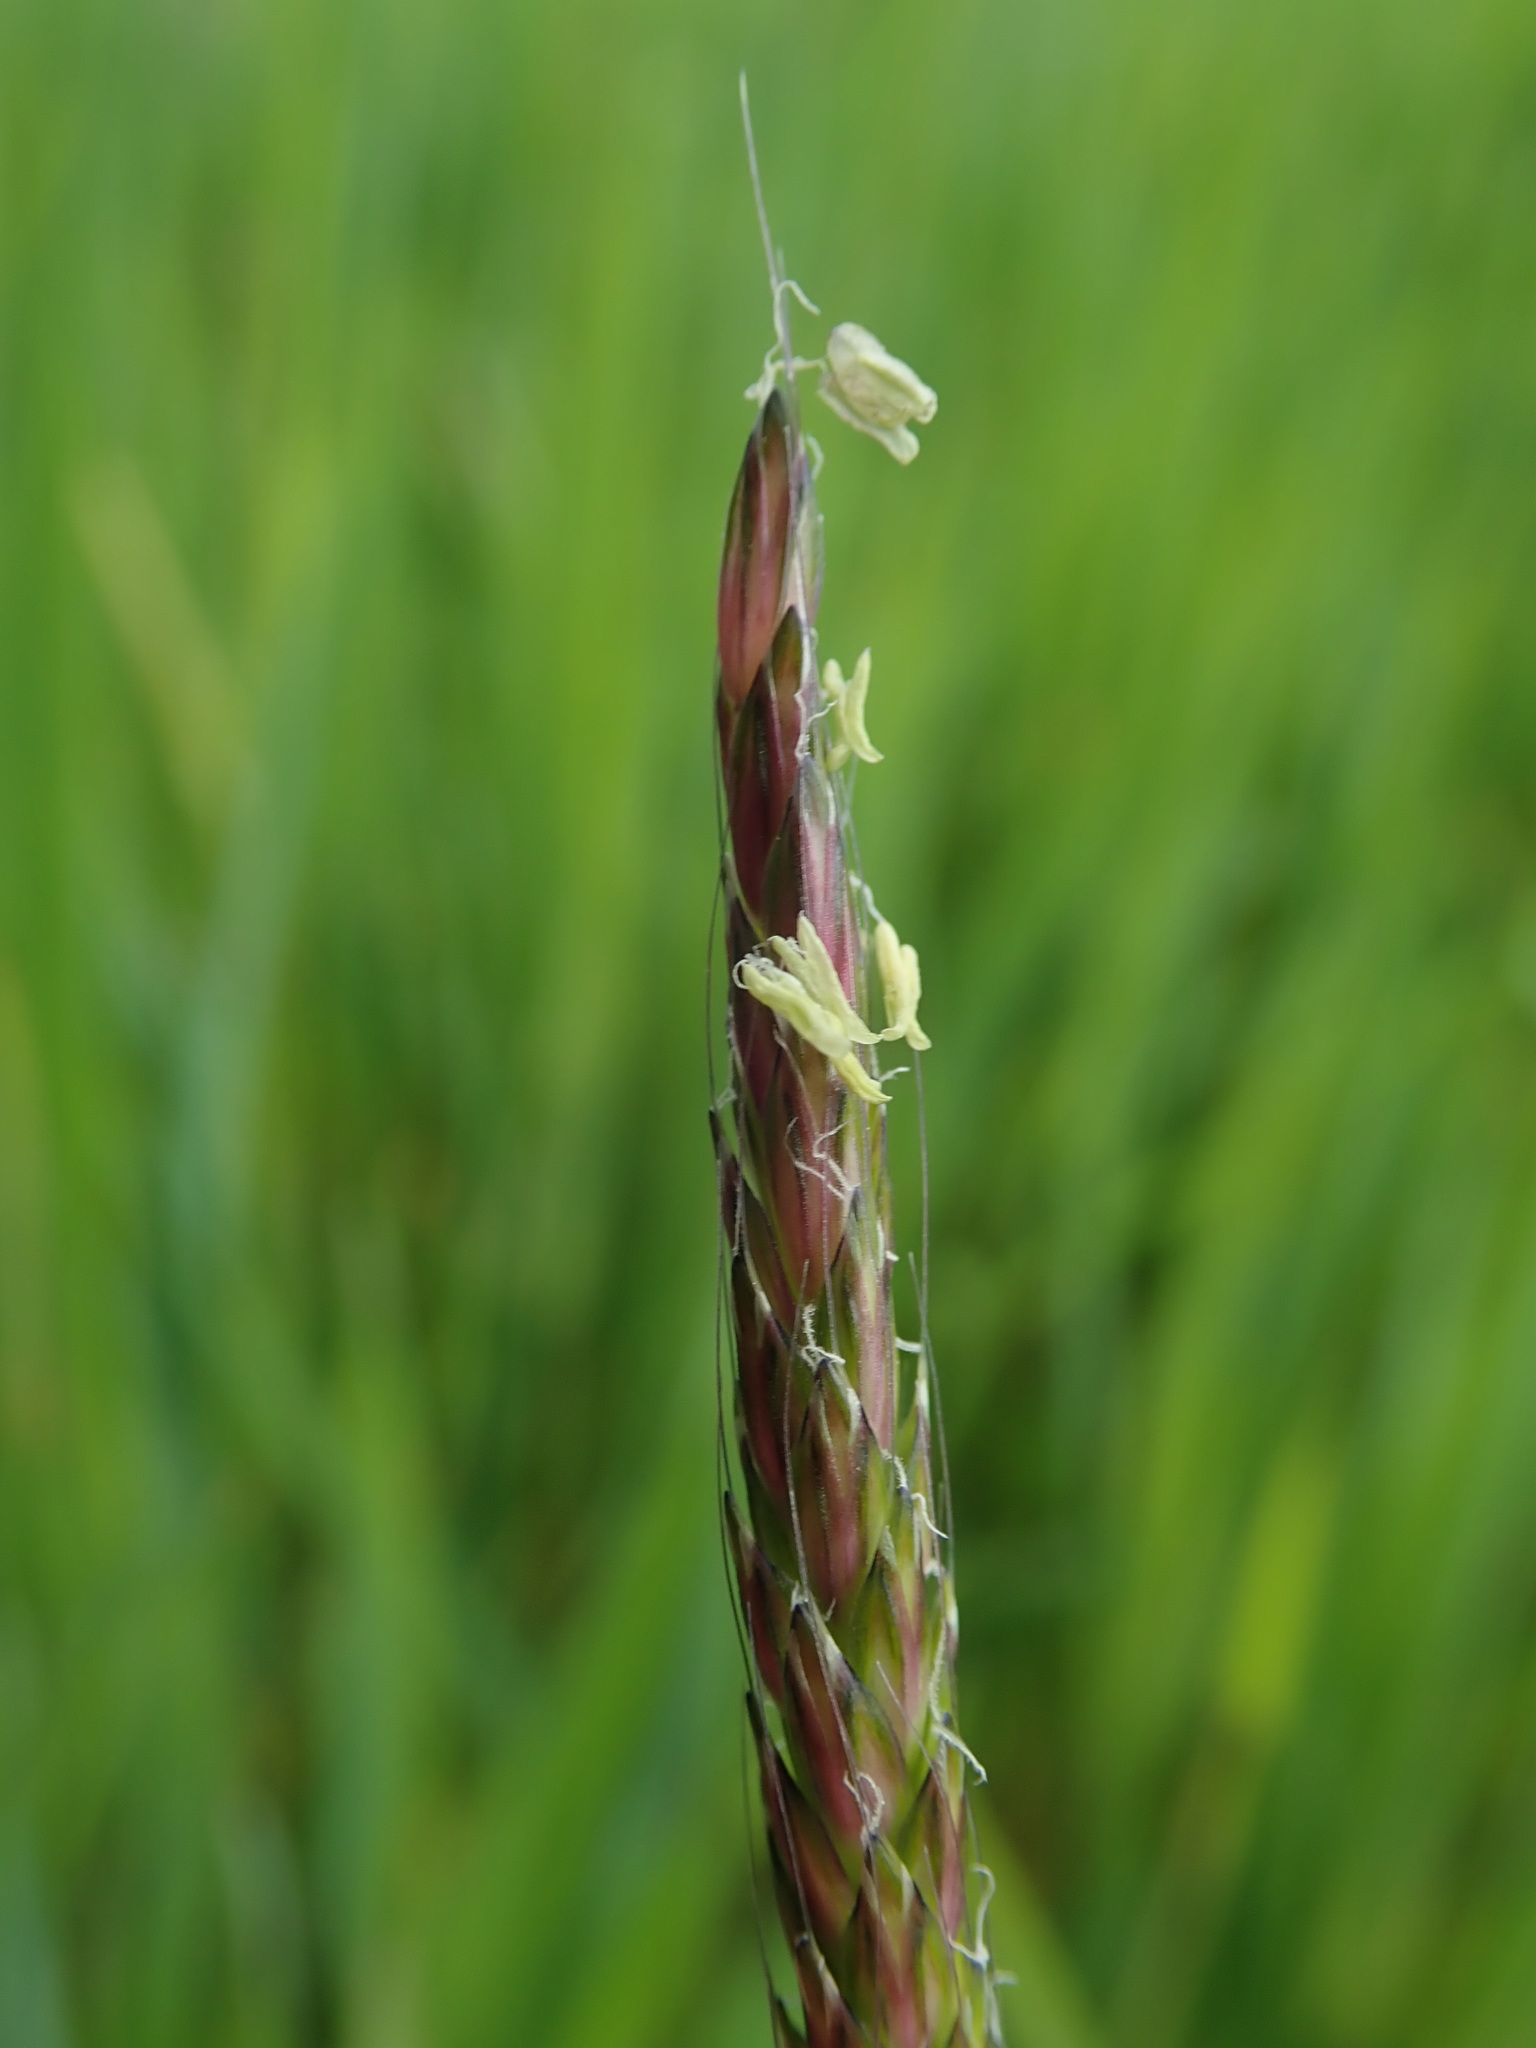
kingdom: Plantae
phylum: Tracheophyta
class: Liliopsida
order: Poales
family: Poaceae
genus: Alopecurus
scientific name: Alopecurus myosuroides
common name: Black-grass
